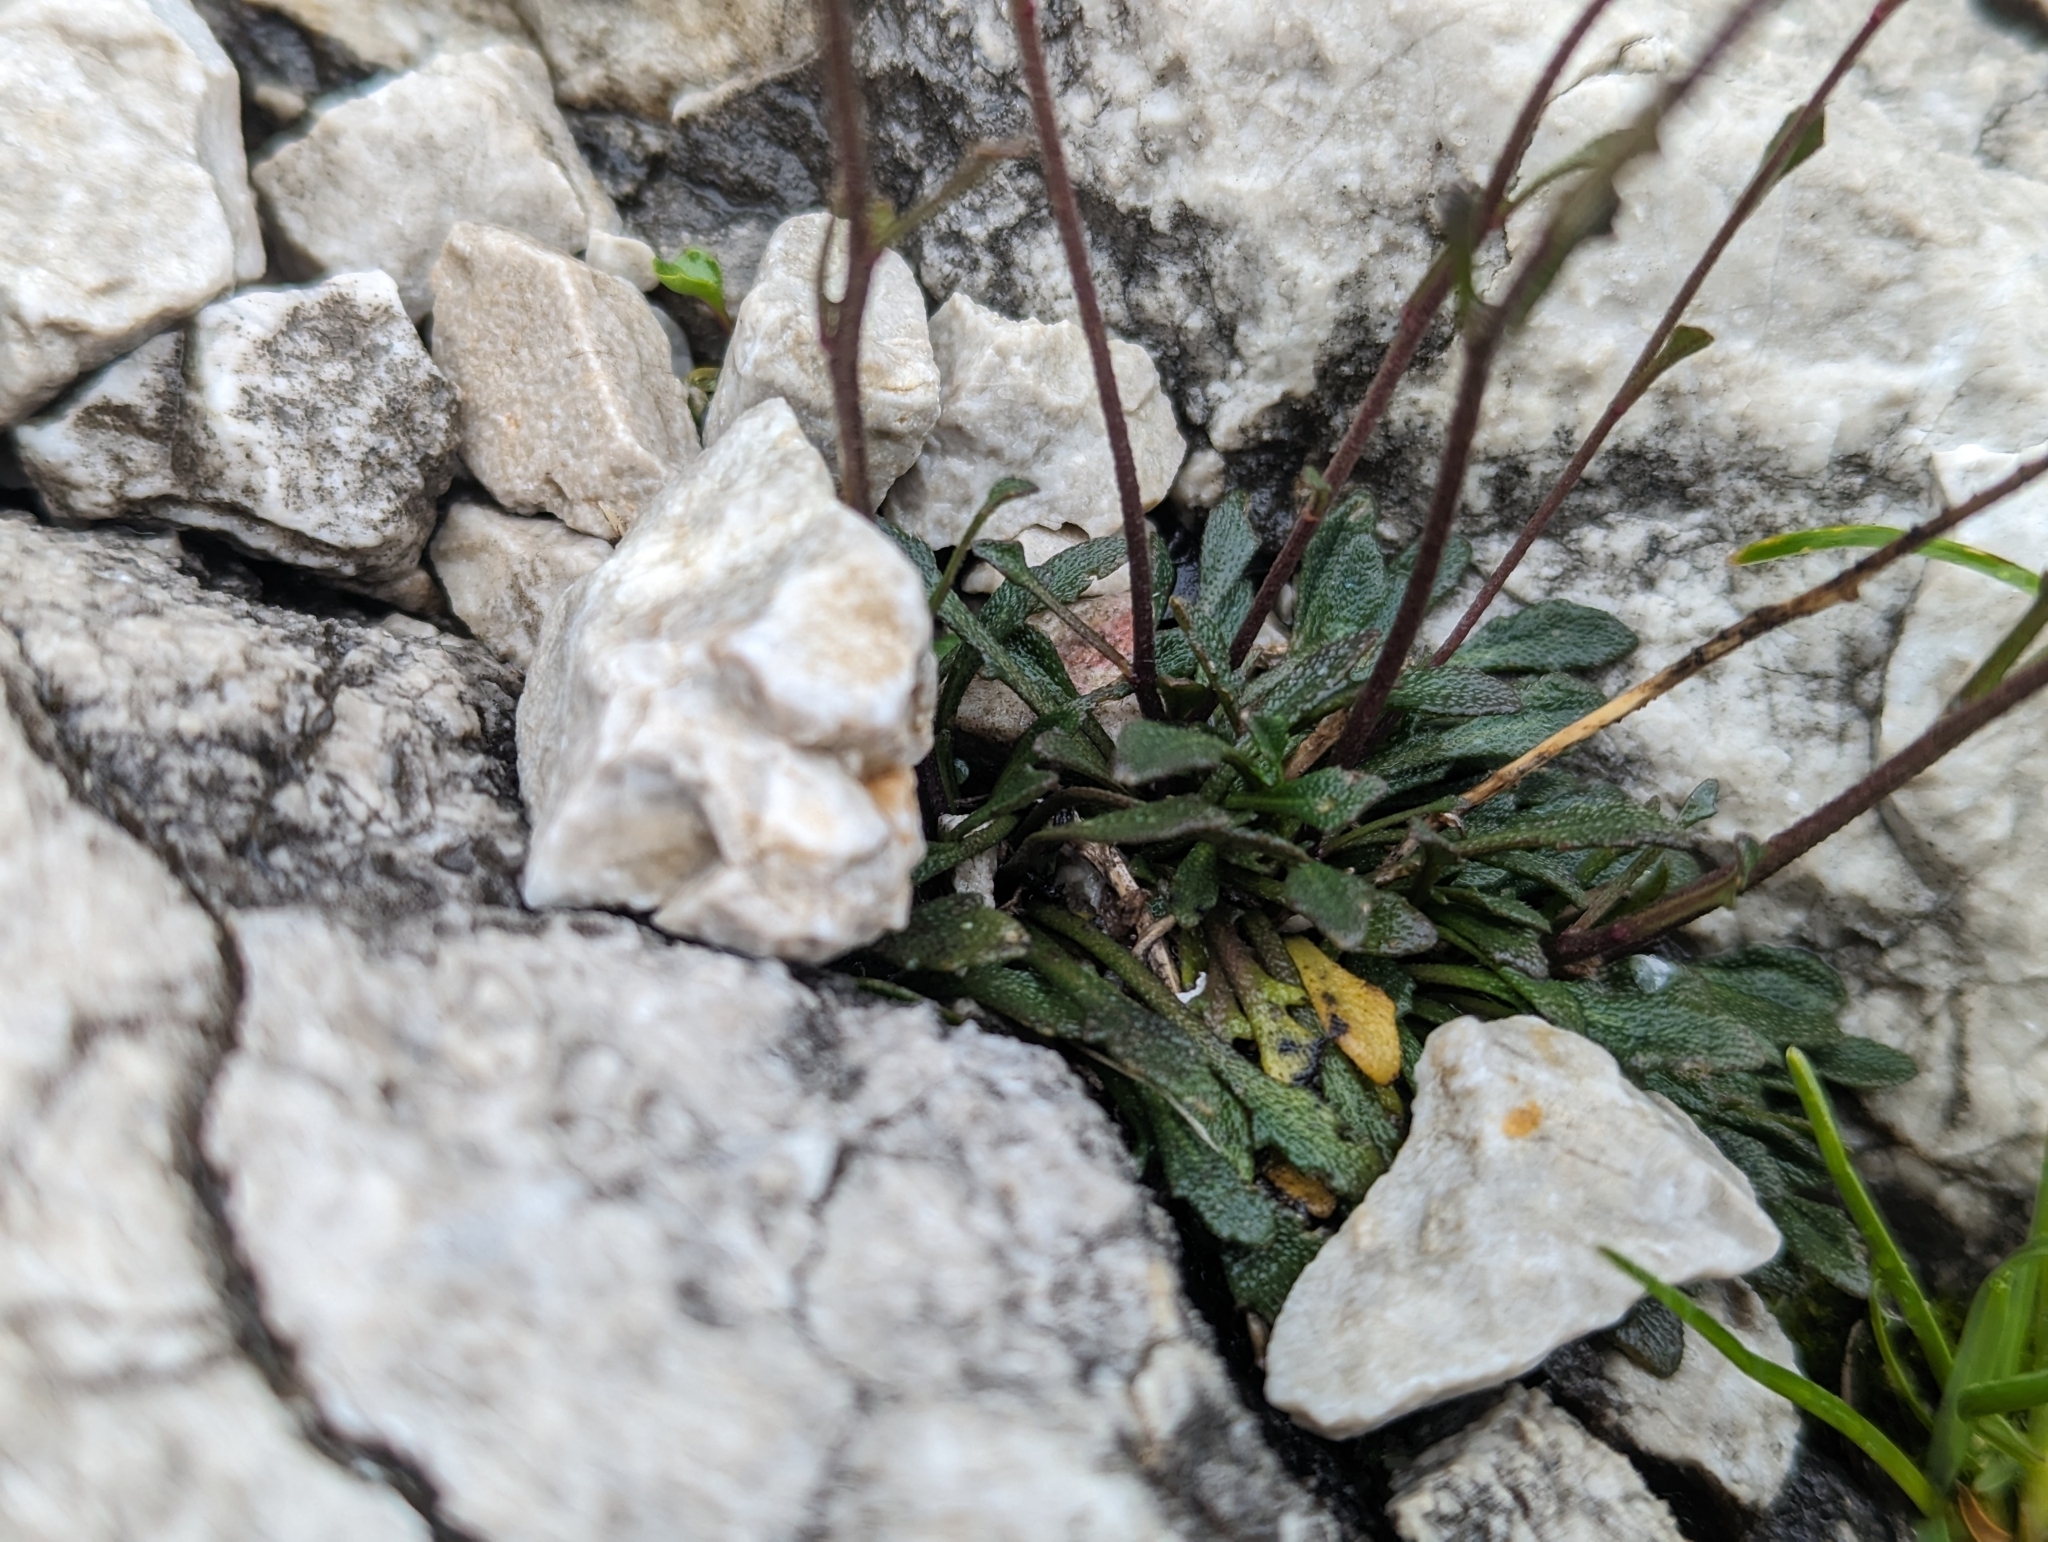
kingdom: Plantae
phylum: Tracheophyta
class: Magnoliopsida
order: Brassicales
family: Brassicaceae
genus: Kernera
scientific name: Kernera saxatilis
